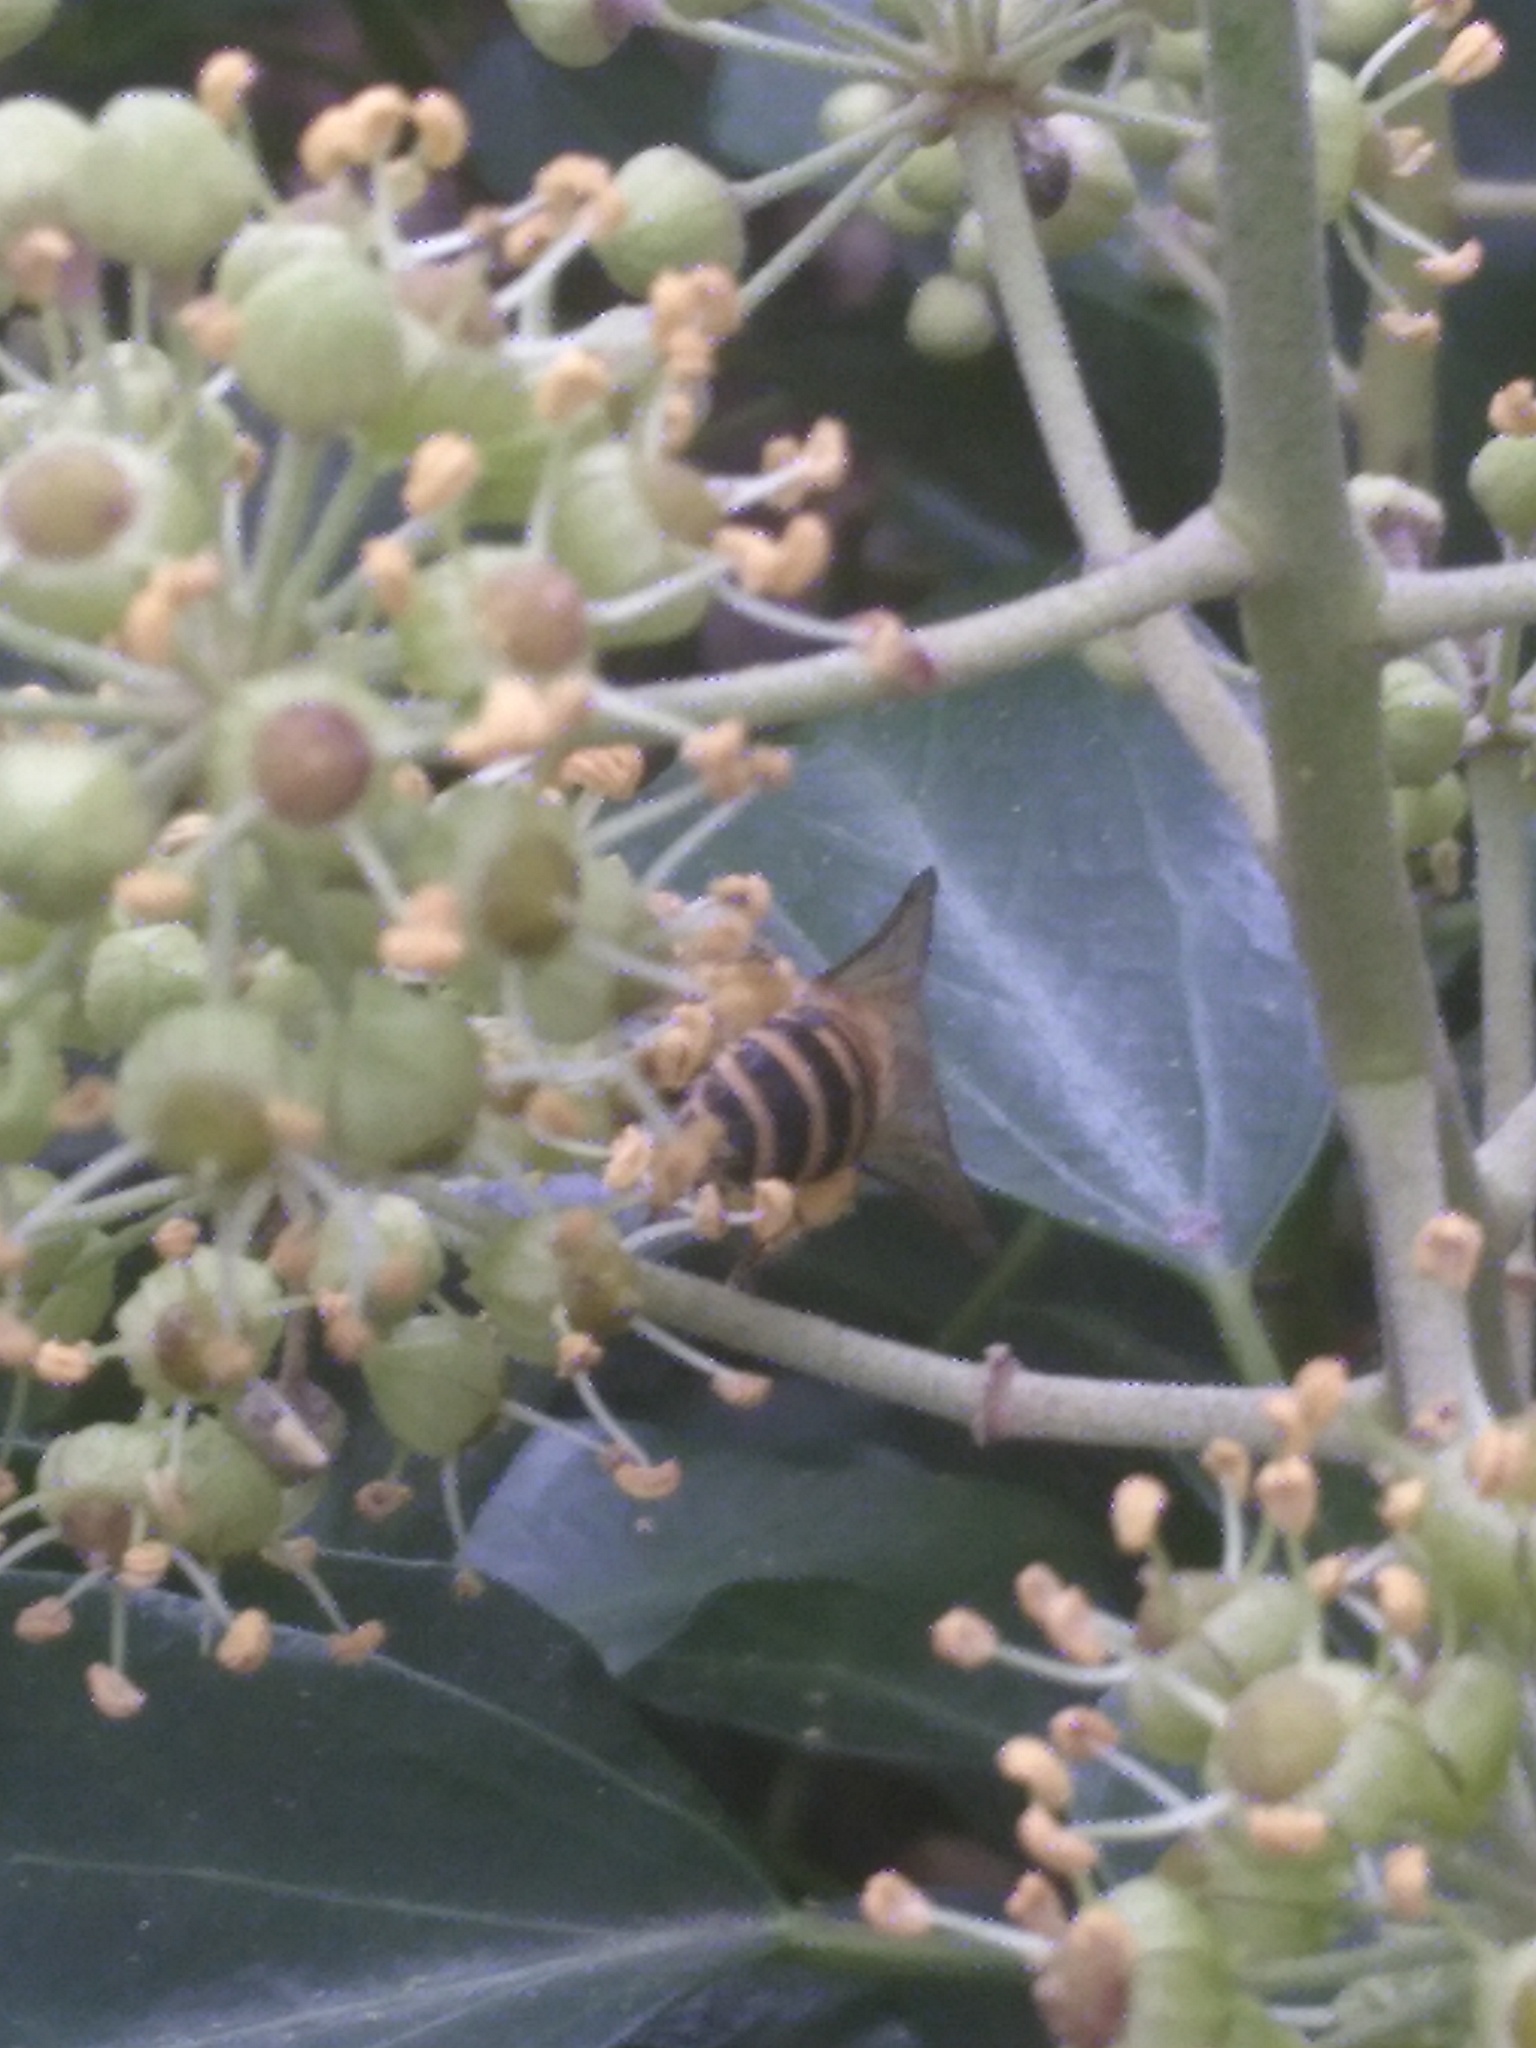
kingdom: Animalia
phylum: Arthropoda
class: Insecta
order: Hymenoptera
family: Colletidae
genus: Colletes
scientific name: Colletes hederae
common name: Ivy bee
